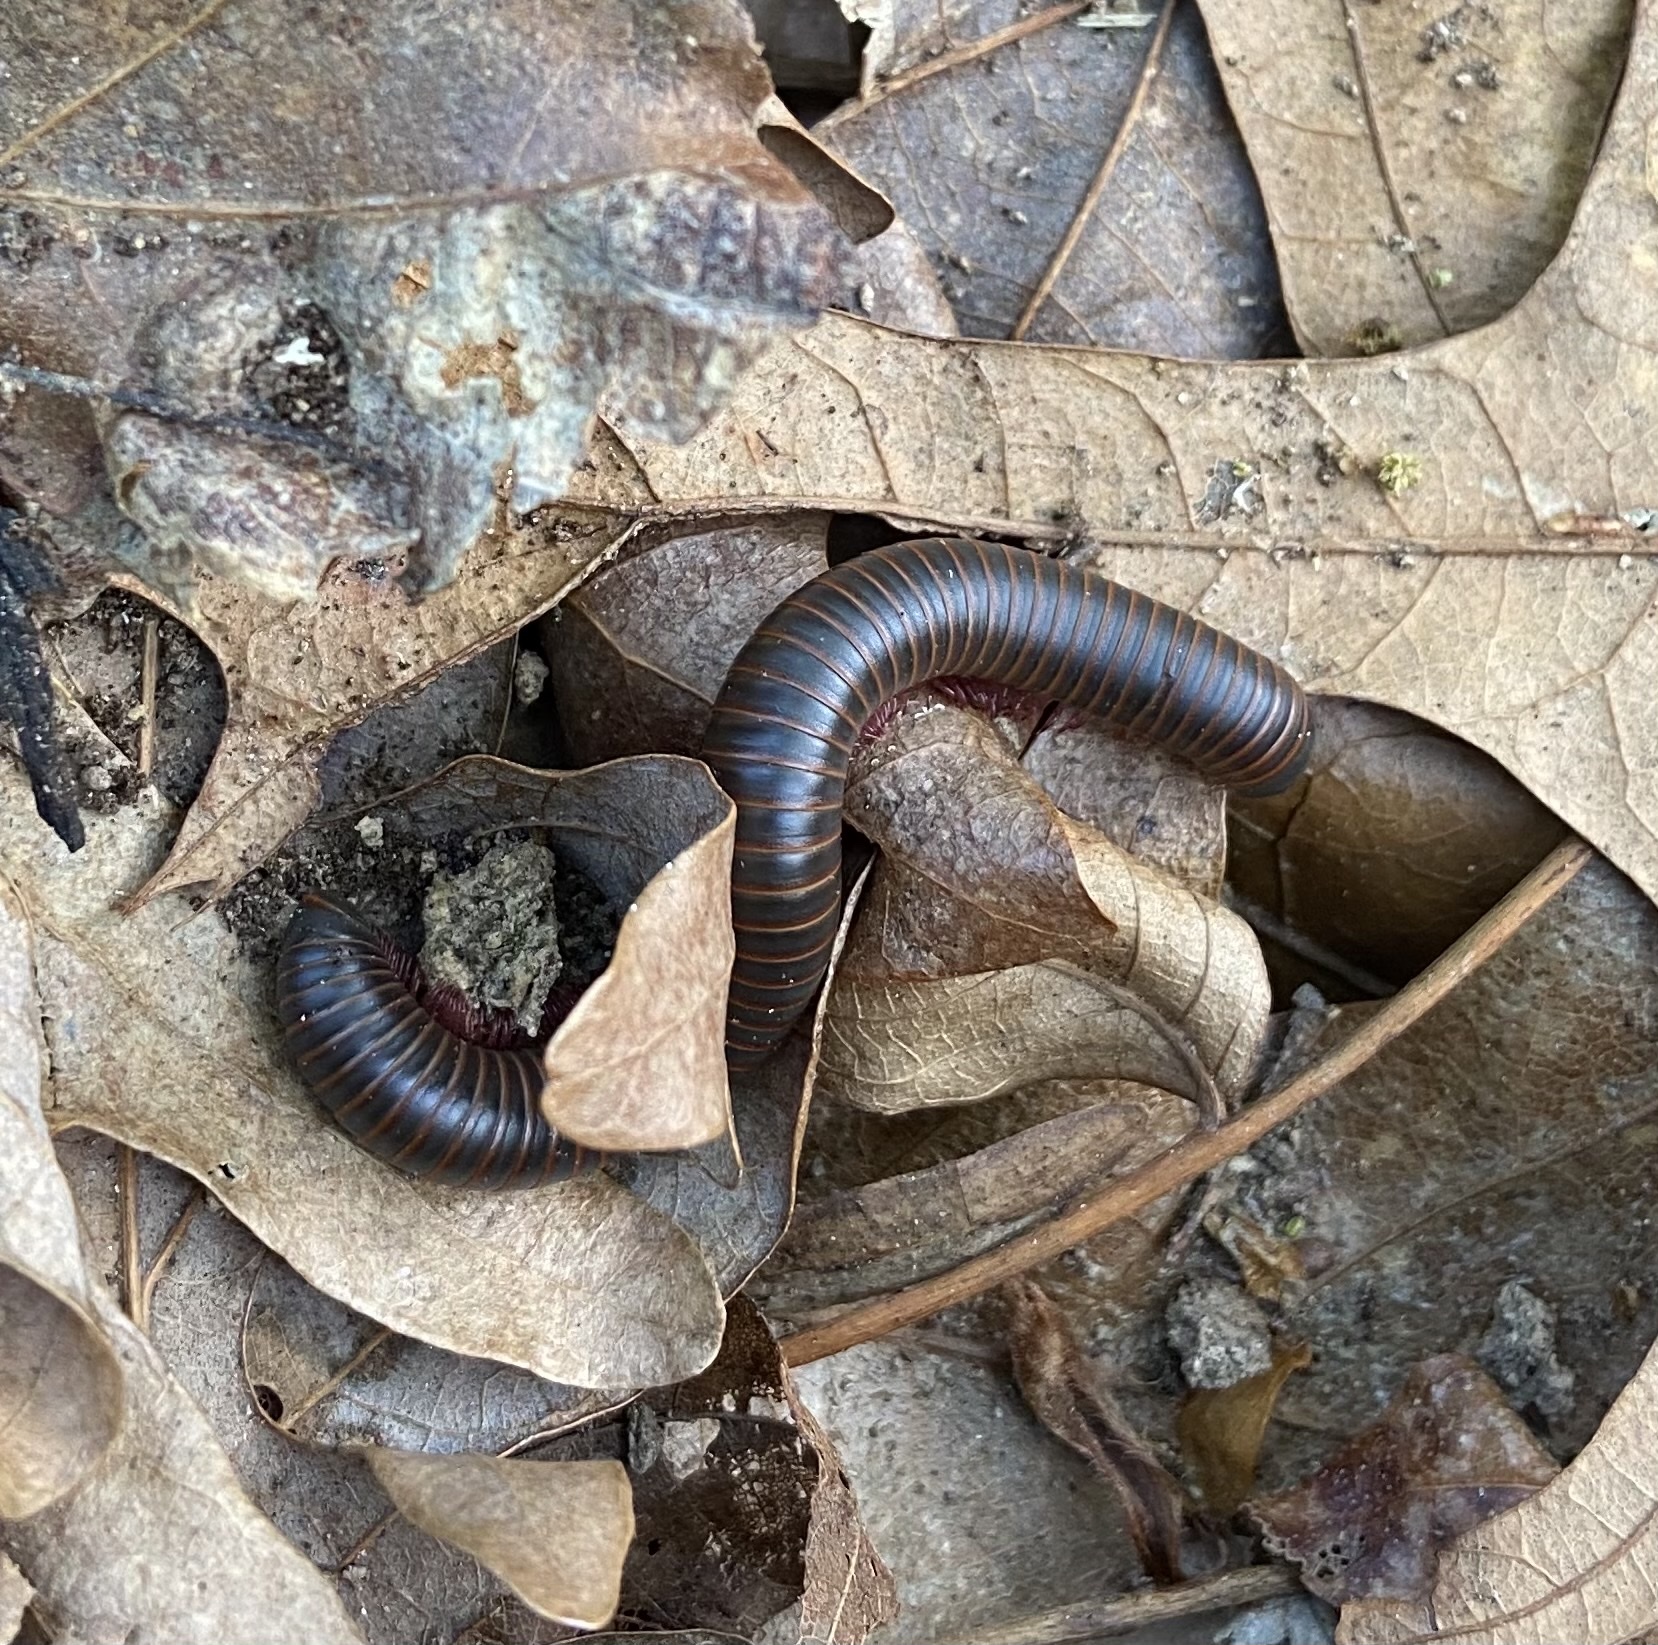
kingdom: Animalia
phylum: Arthropoda
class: Diplopoda
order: Spirobolida
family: Spirobolidae
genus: Narceus
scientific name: Narceus
